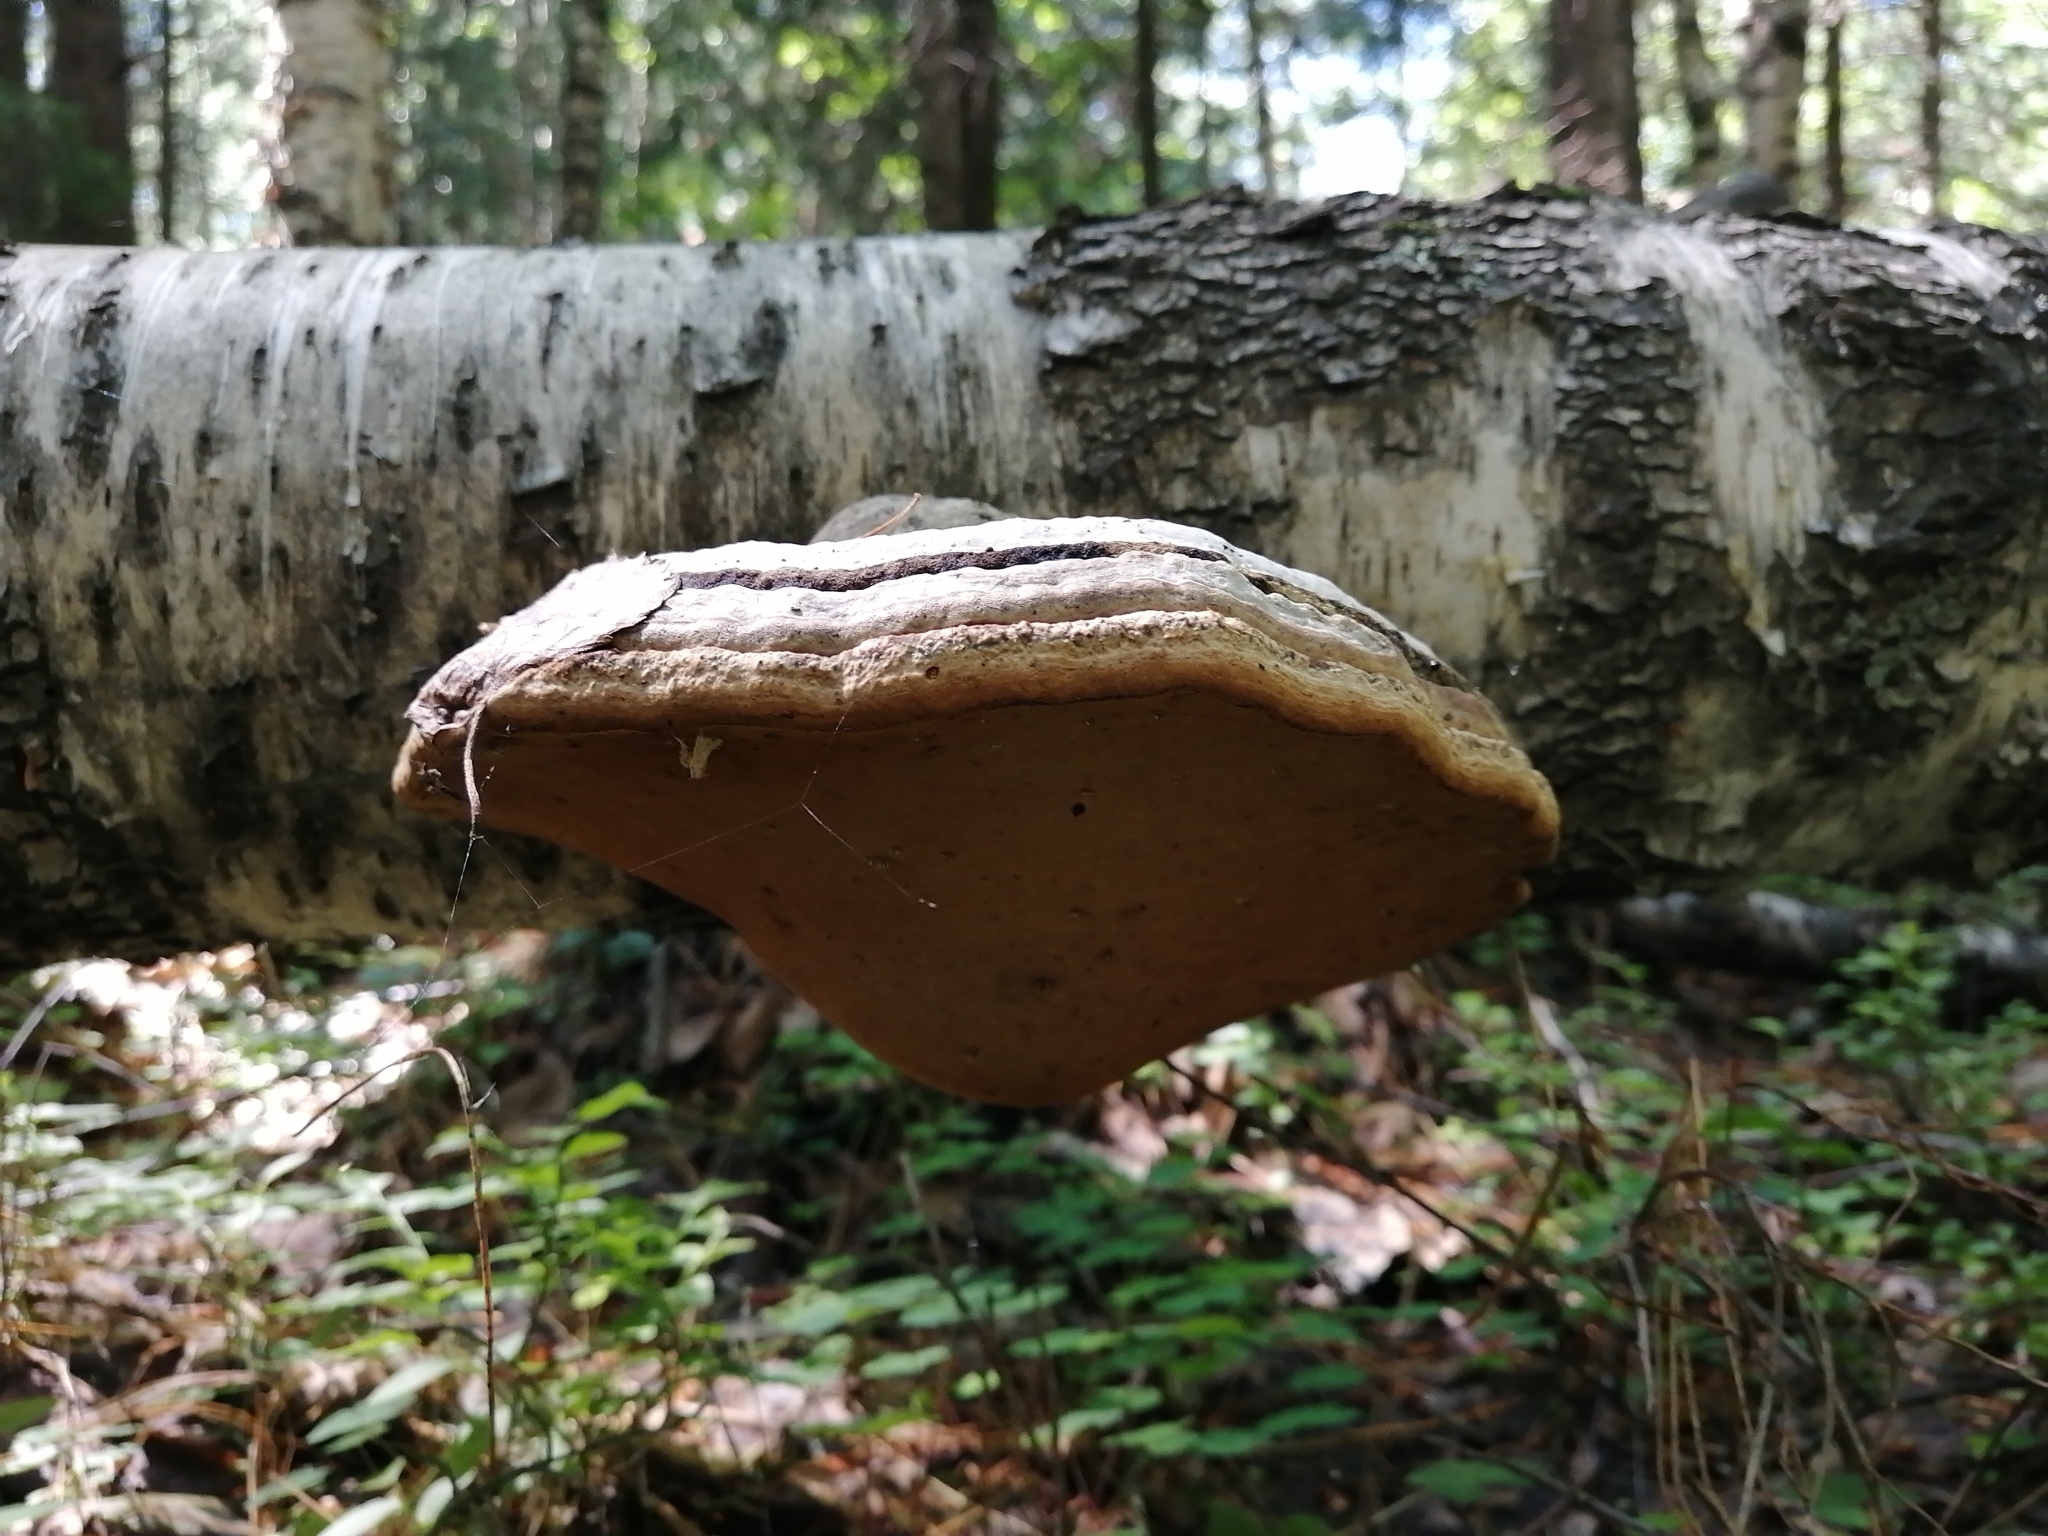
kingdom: Fungi
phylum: Basidiomycota
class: Agaricomycetes
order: Polyporales
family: Polyporaceae
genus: Fomes
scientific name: Fomes fomentarius
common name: Hoof fungus
